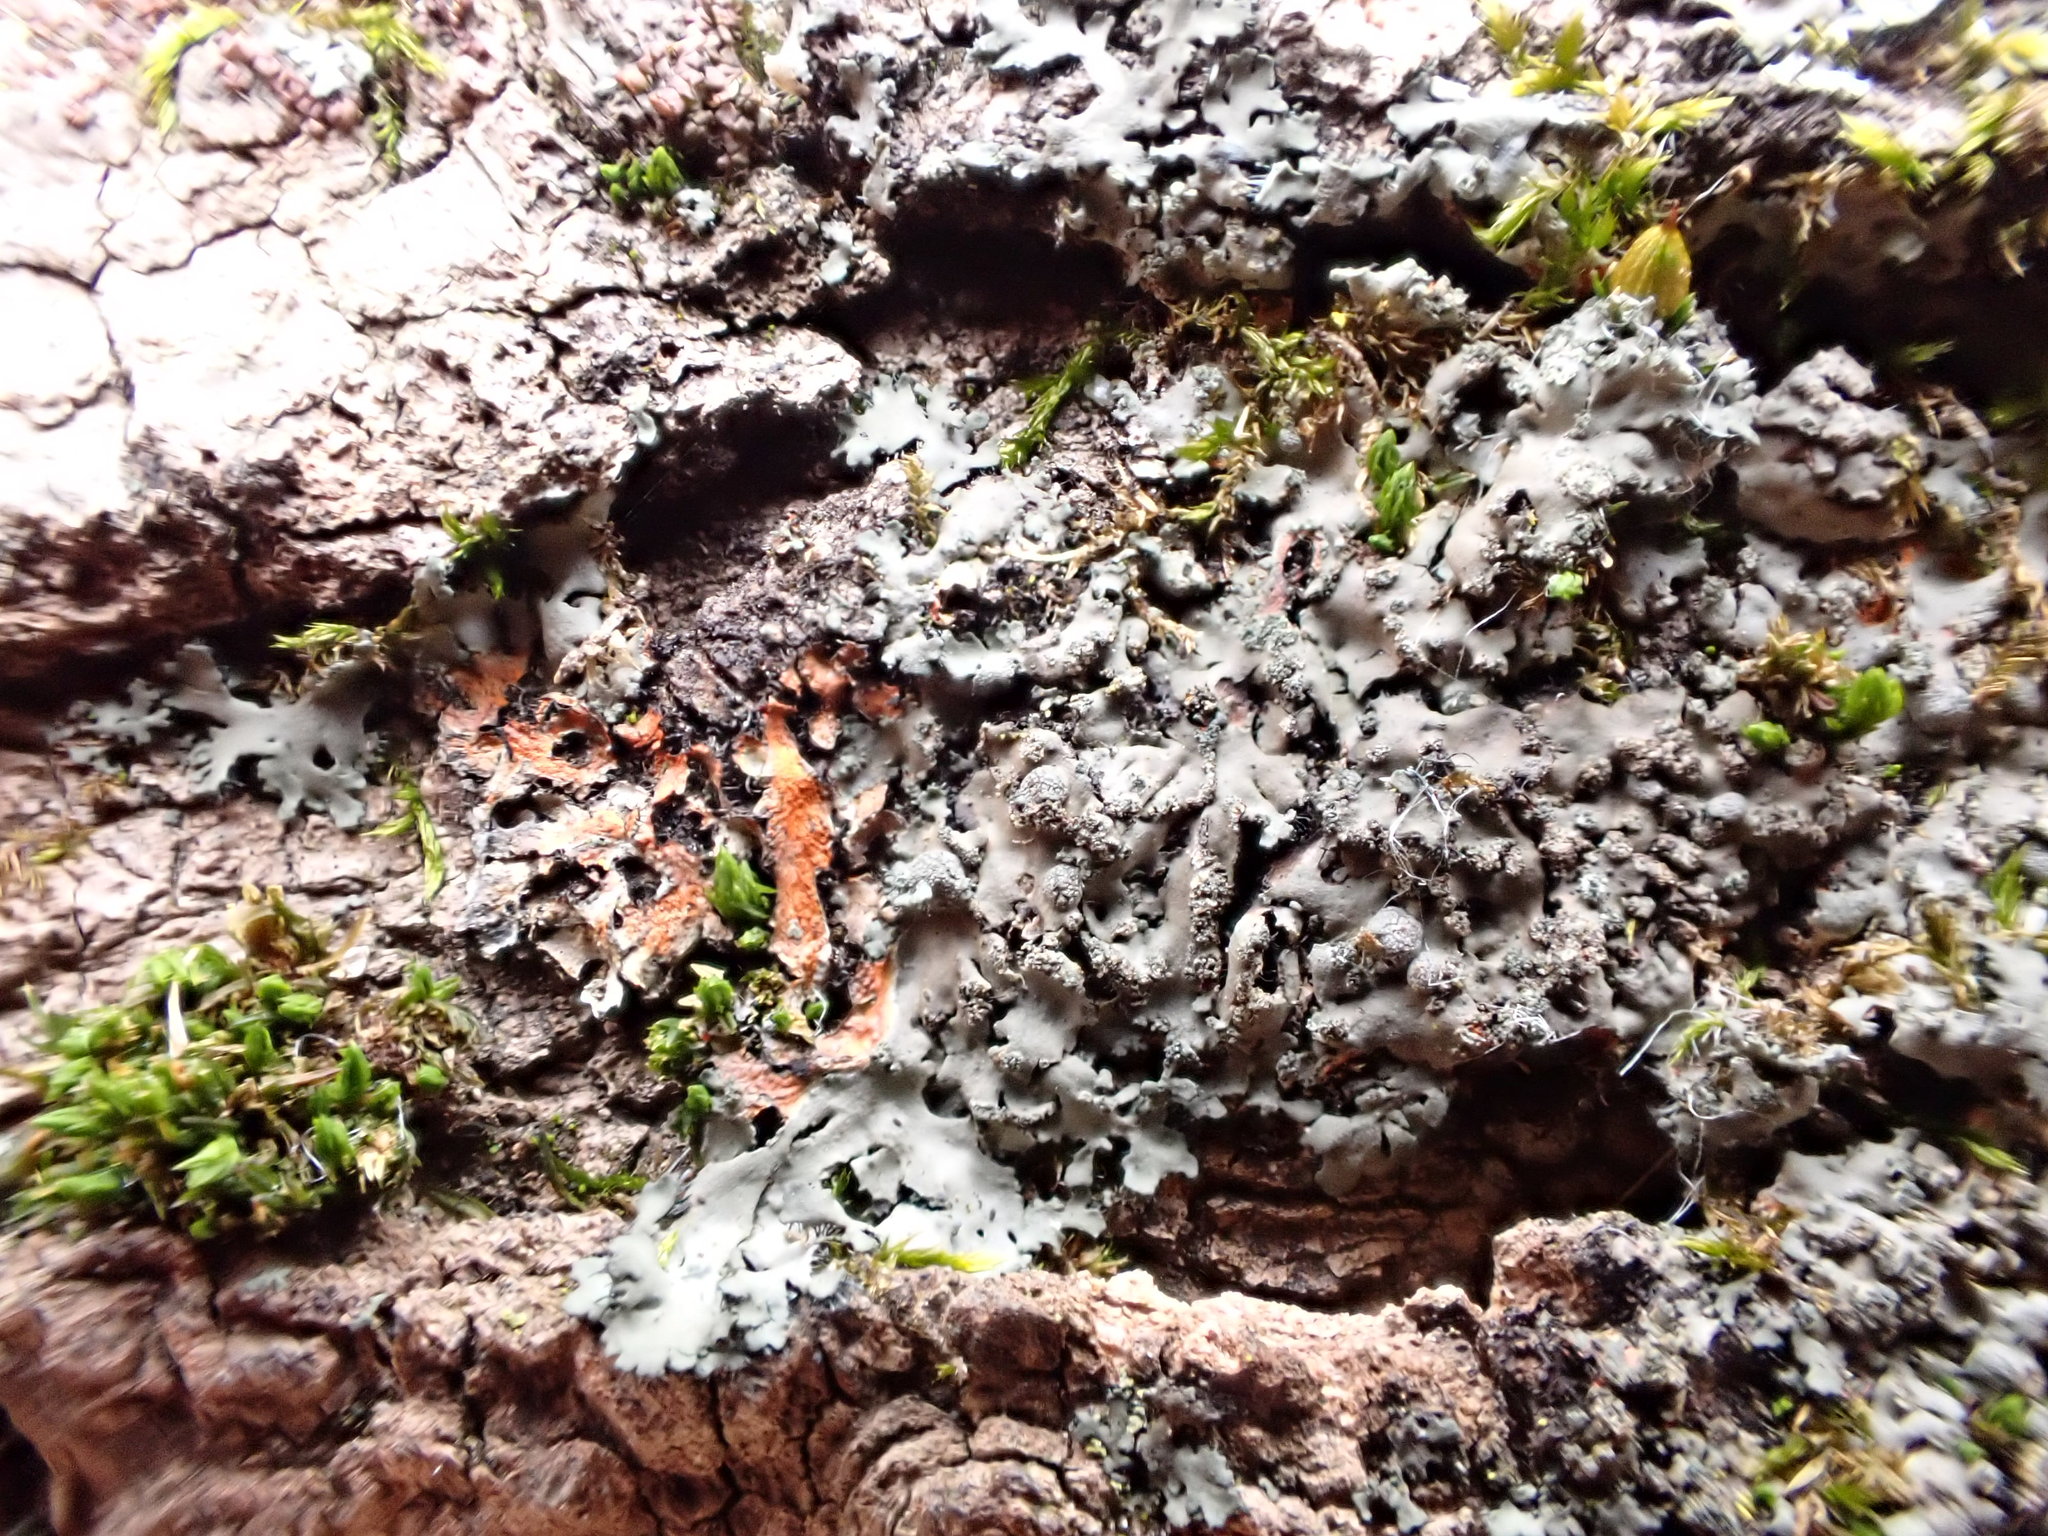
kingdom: Fungi
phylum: Ascomycota
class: Lecanoromycetes
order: Caliciales
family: Physciaceae
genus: Phaeophyscia
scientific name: Phaeophyscia rubropulchra
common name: Orange-cored shadow lichen
